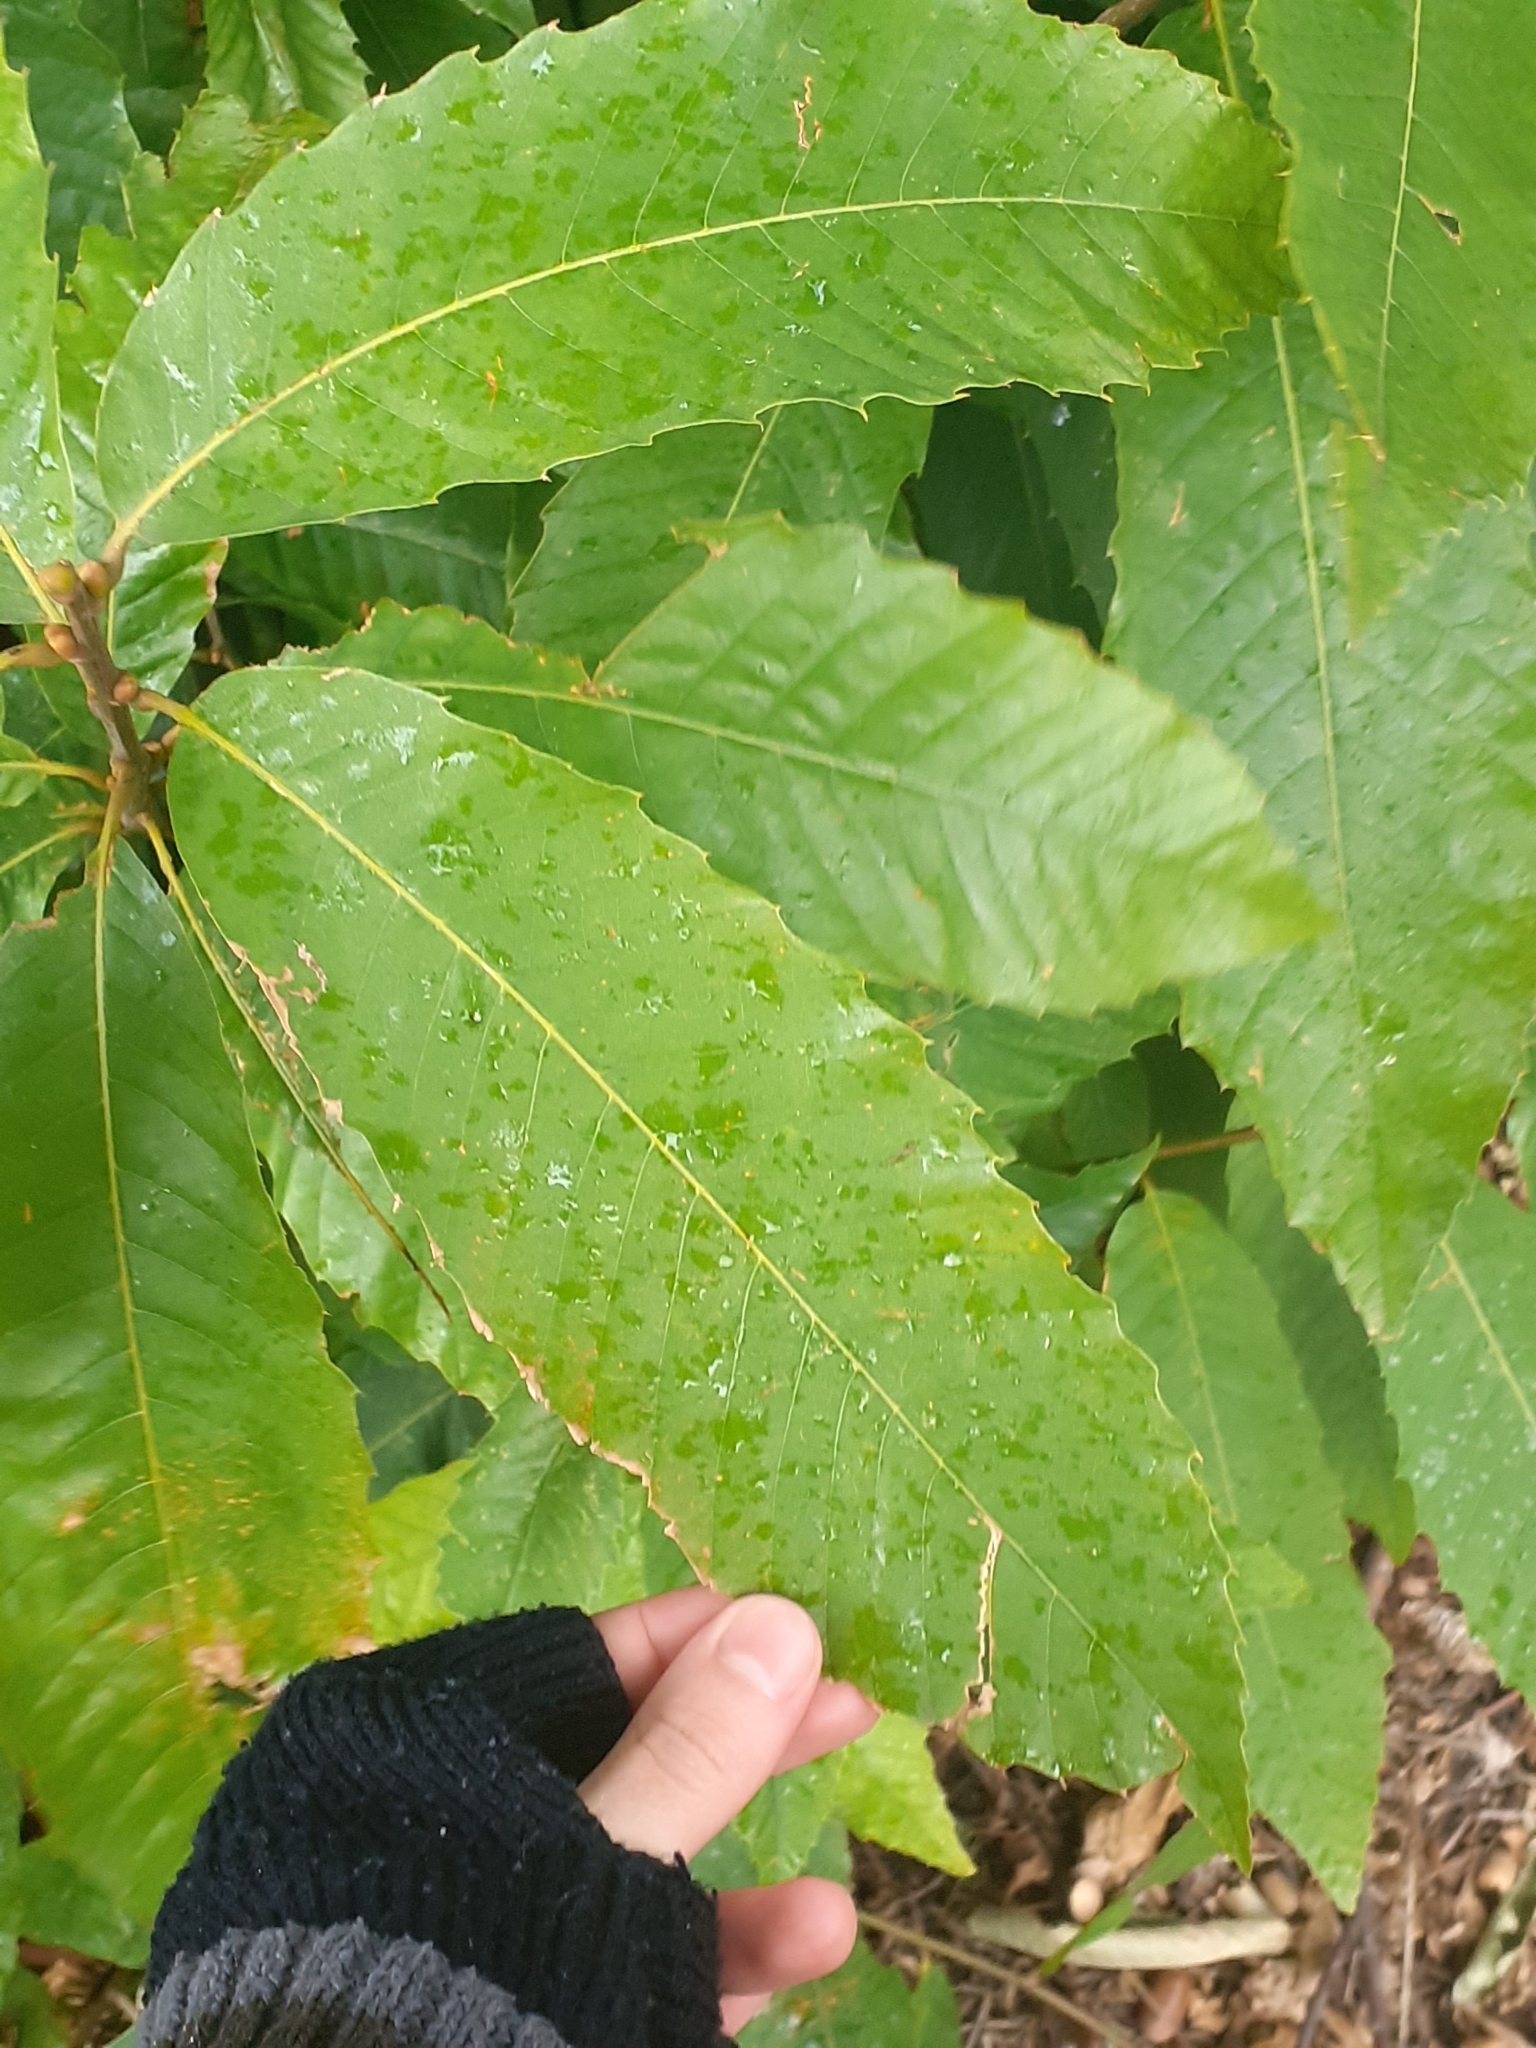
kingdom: Plantae
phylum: Tracheophyta
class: Magnoliopsida
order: Fagales
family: Fagaceae
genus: Castanea
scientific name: Castanea sativa
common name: Sweet chestnut
